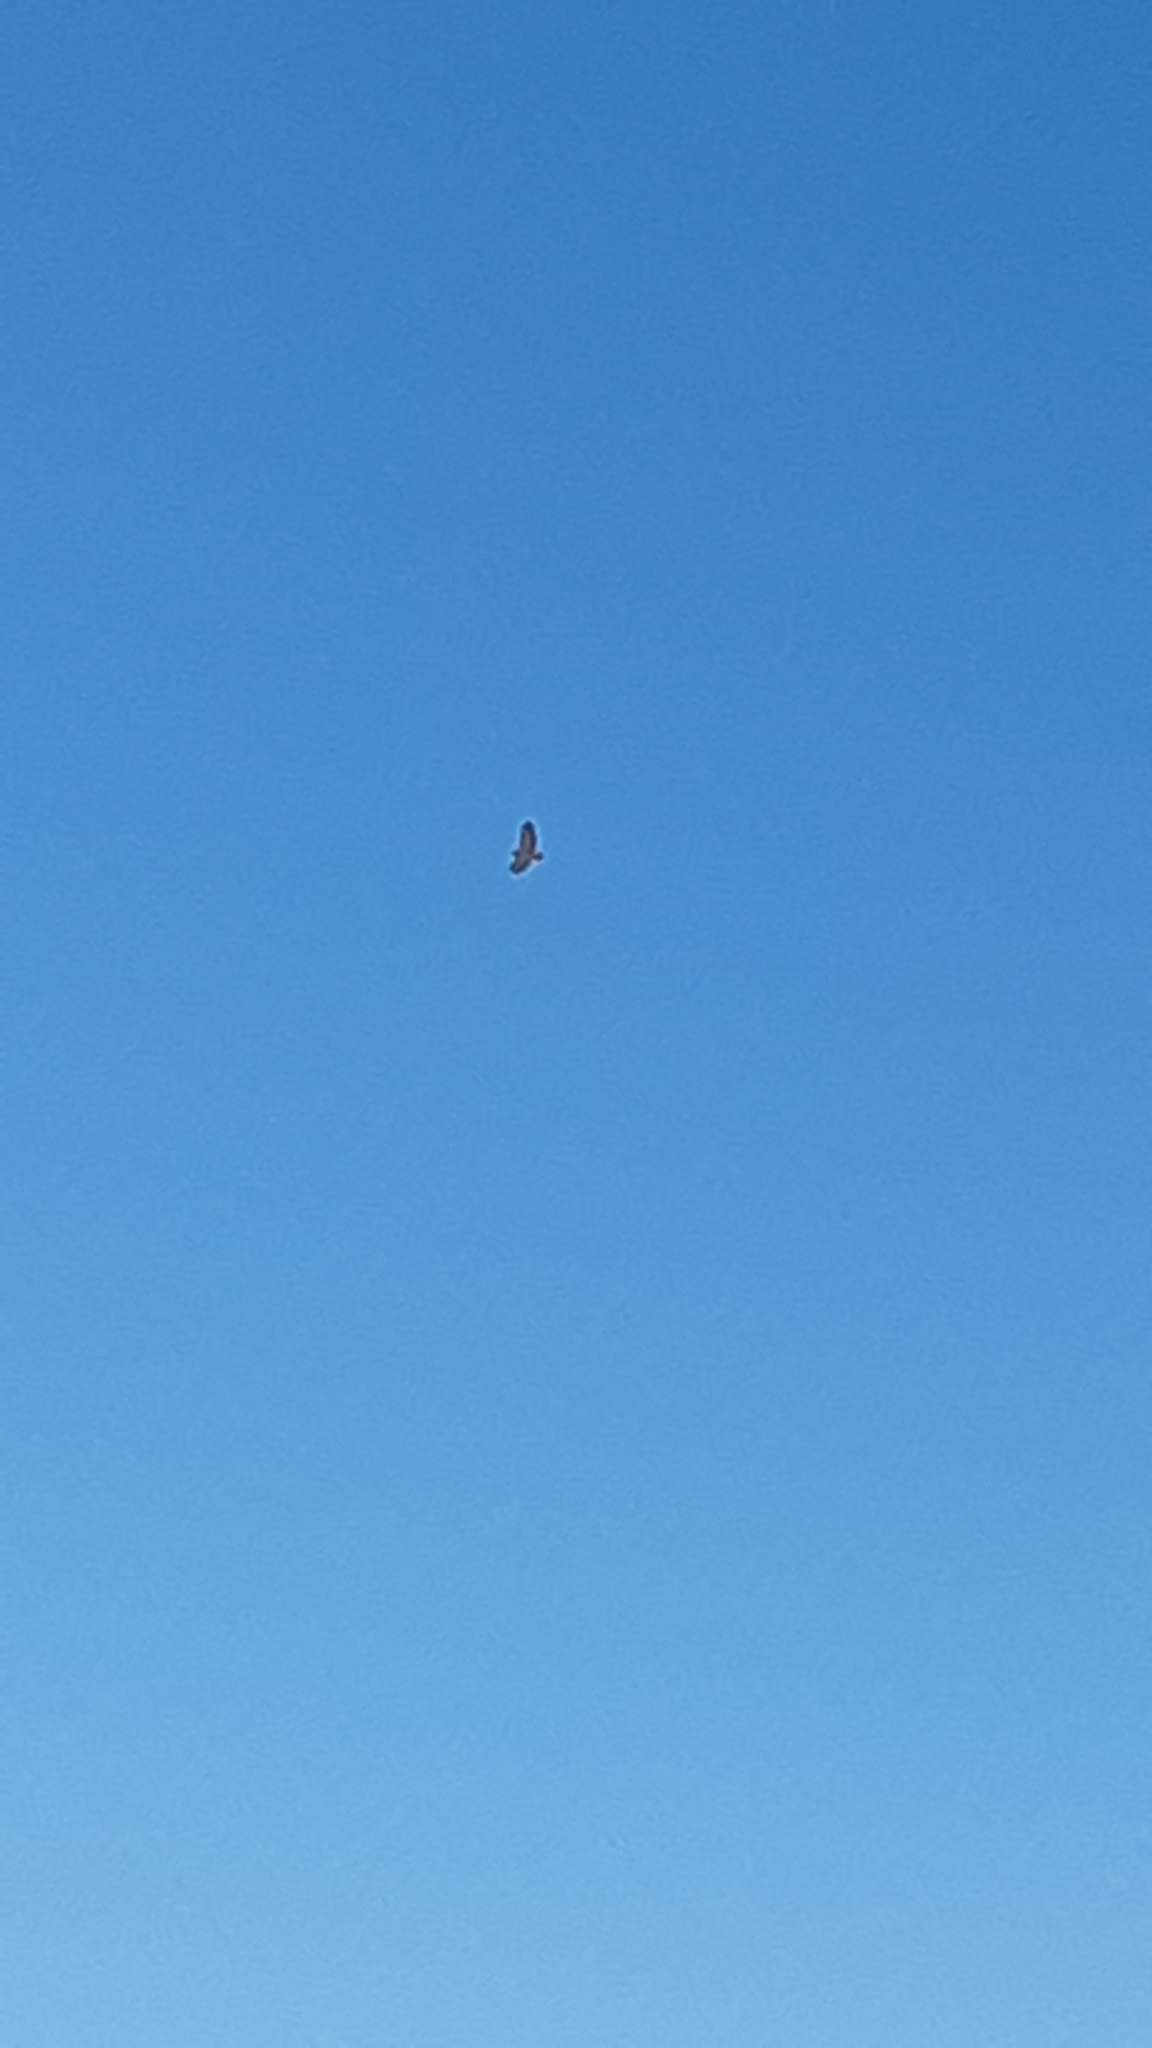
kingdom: Animalia
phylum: Chordata
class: Aves
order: Accipitriformes
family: Accipitridae
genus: Buteo
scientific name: Buteo jamaicensis
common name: Red-tailed hawk
